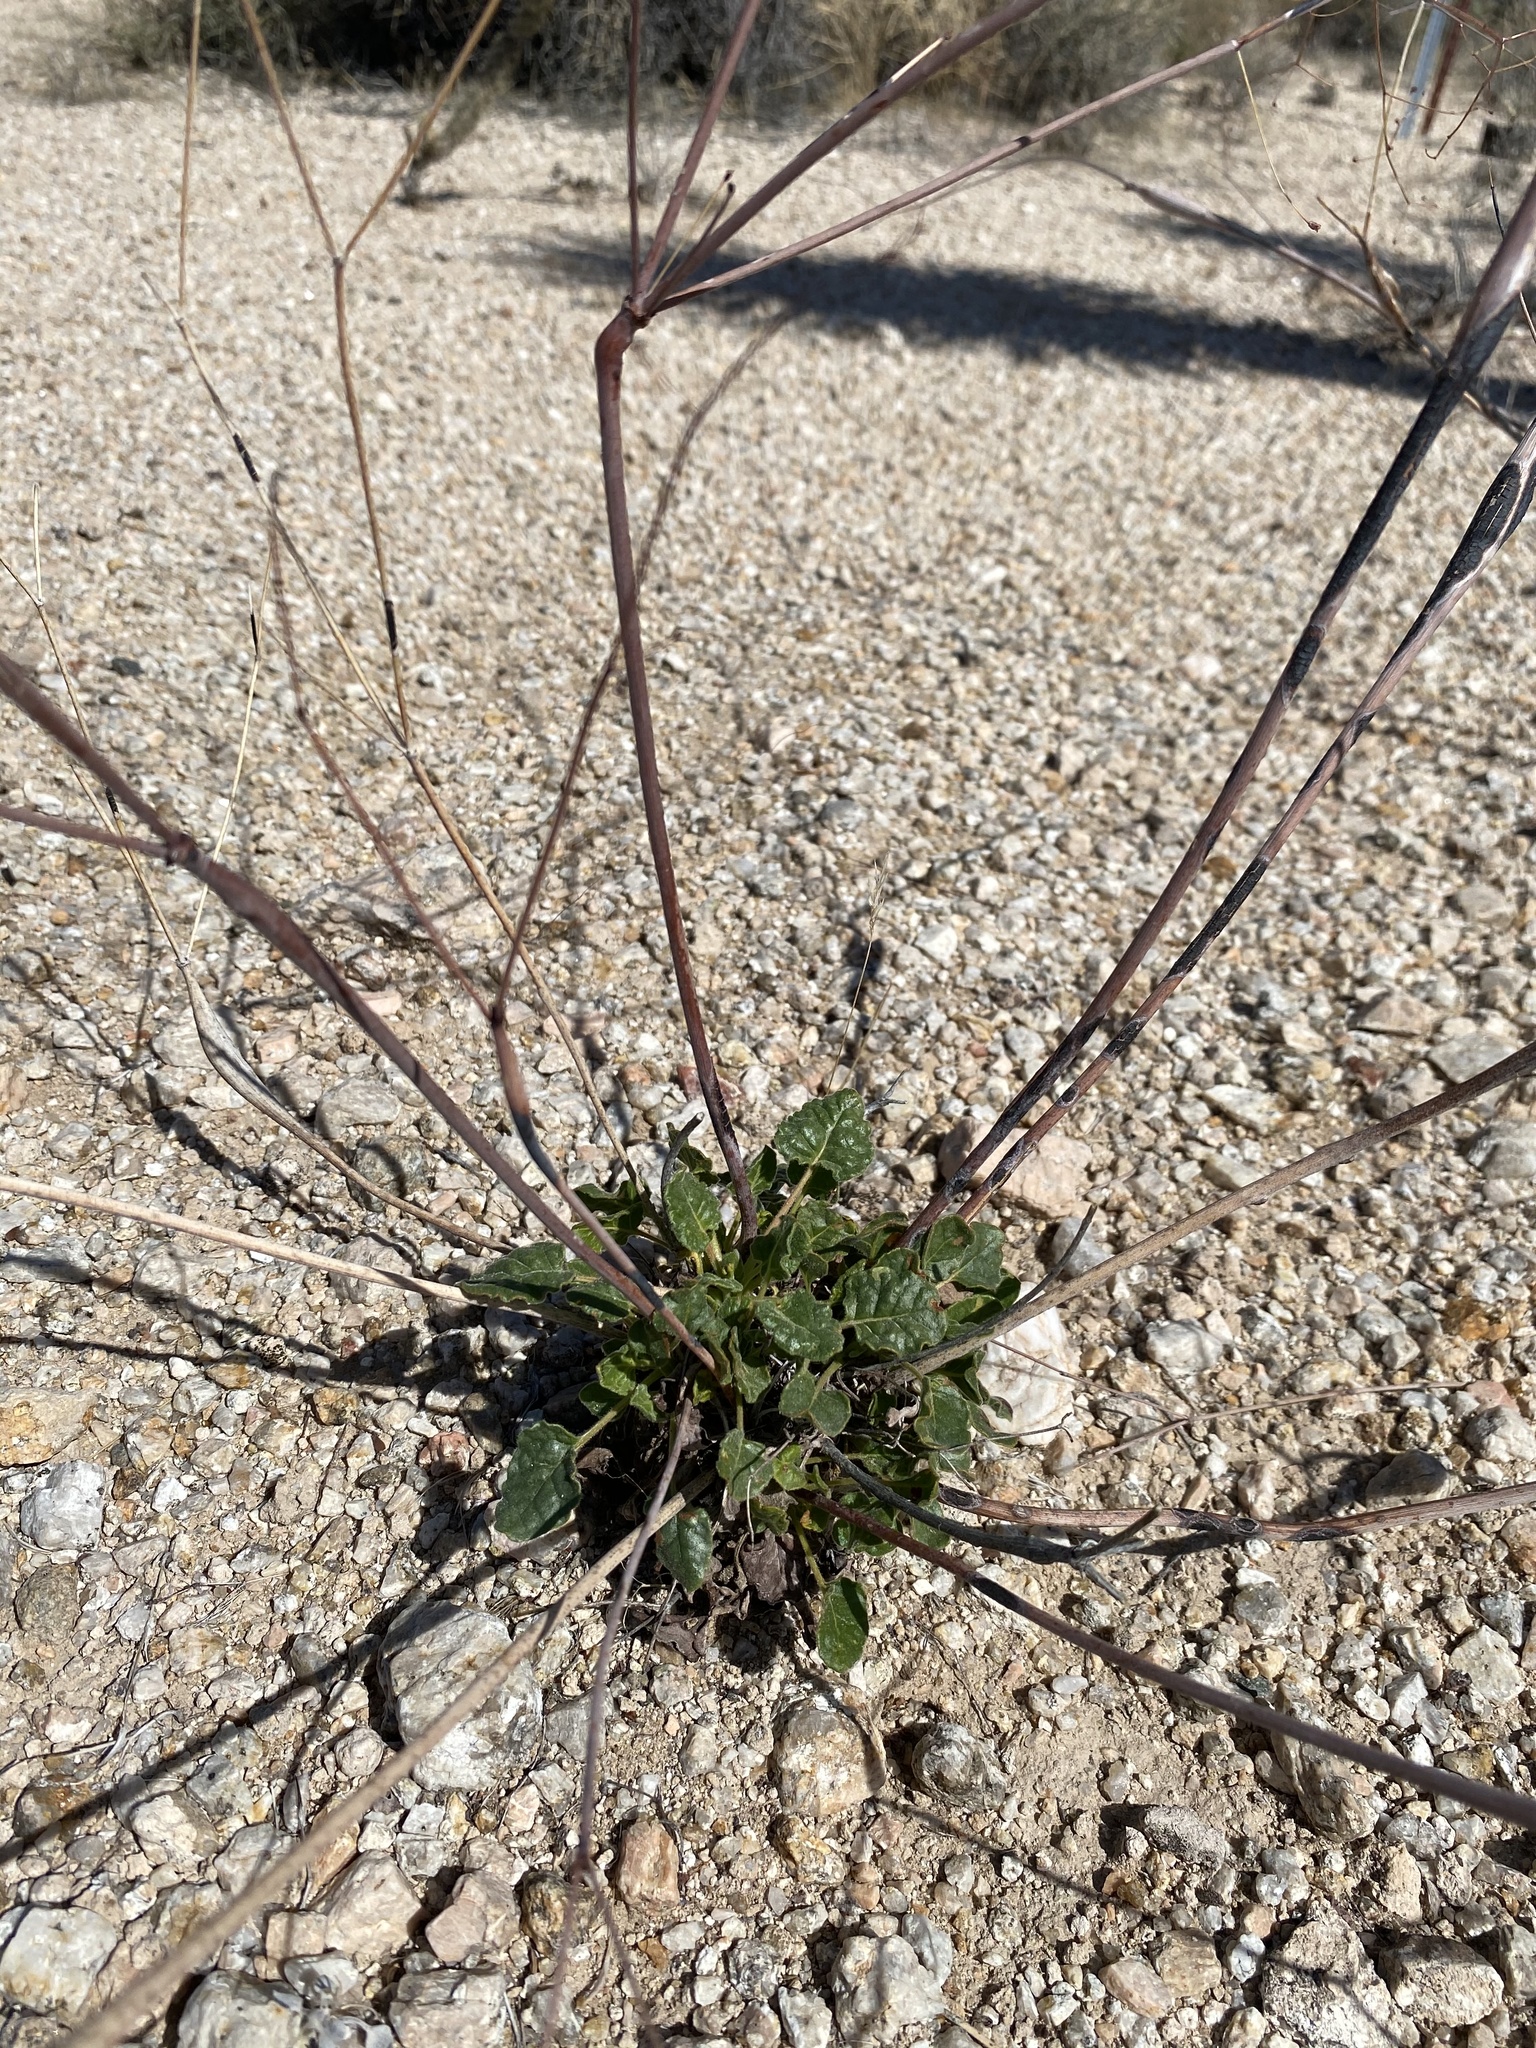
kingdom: Plantae
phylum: Tracheophyta
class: Magnoliopsida
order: Caryophyllales
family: Polygonaceae
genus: Eriogonum
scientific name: Eriogonum inflatum
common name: Desert trumpet
